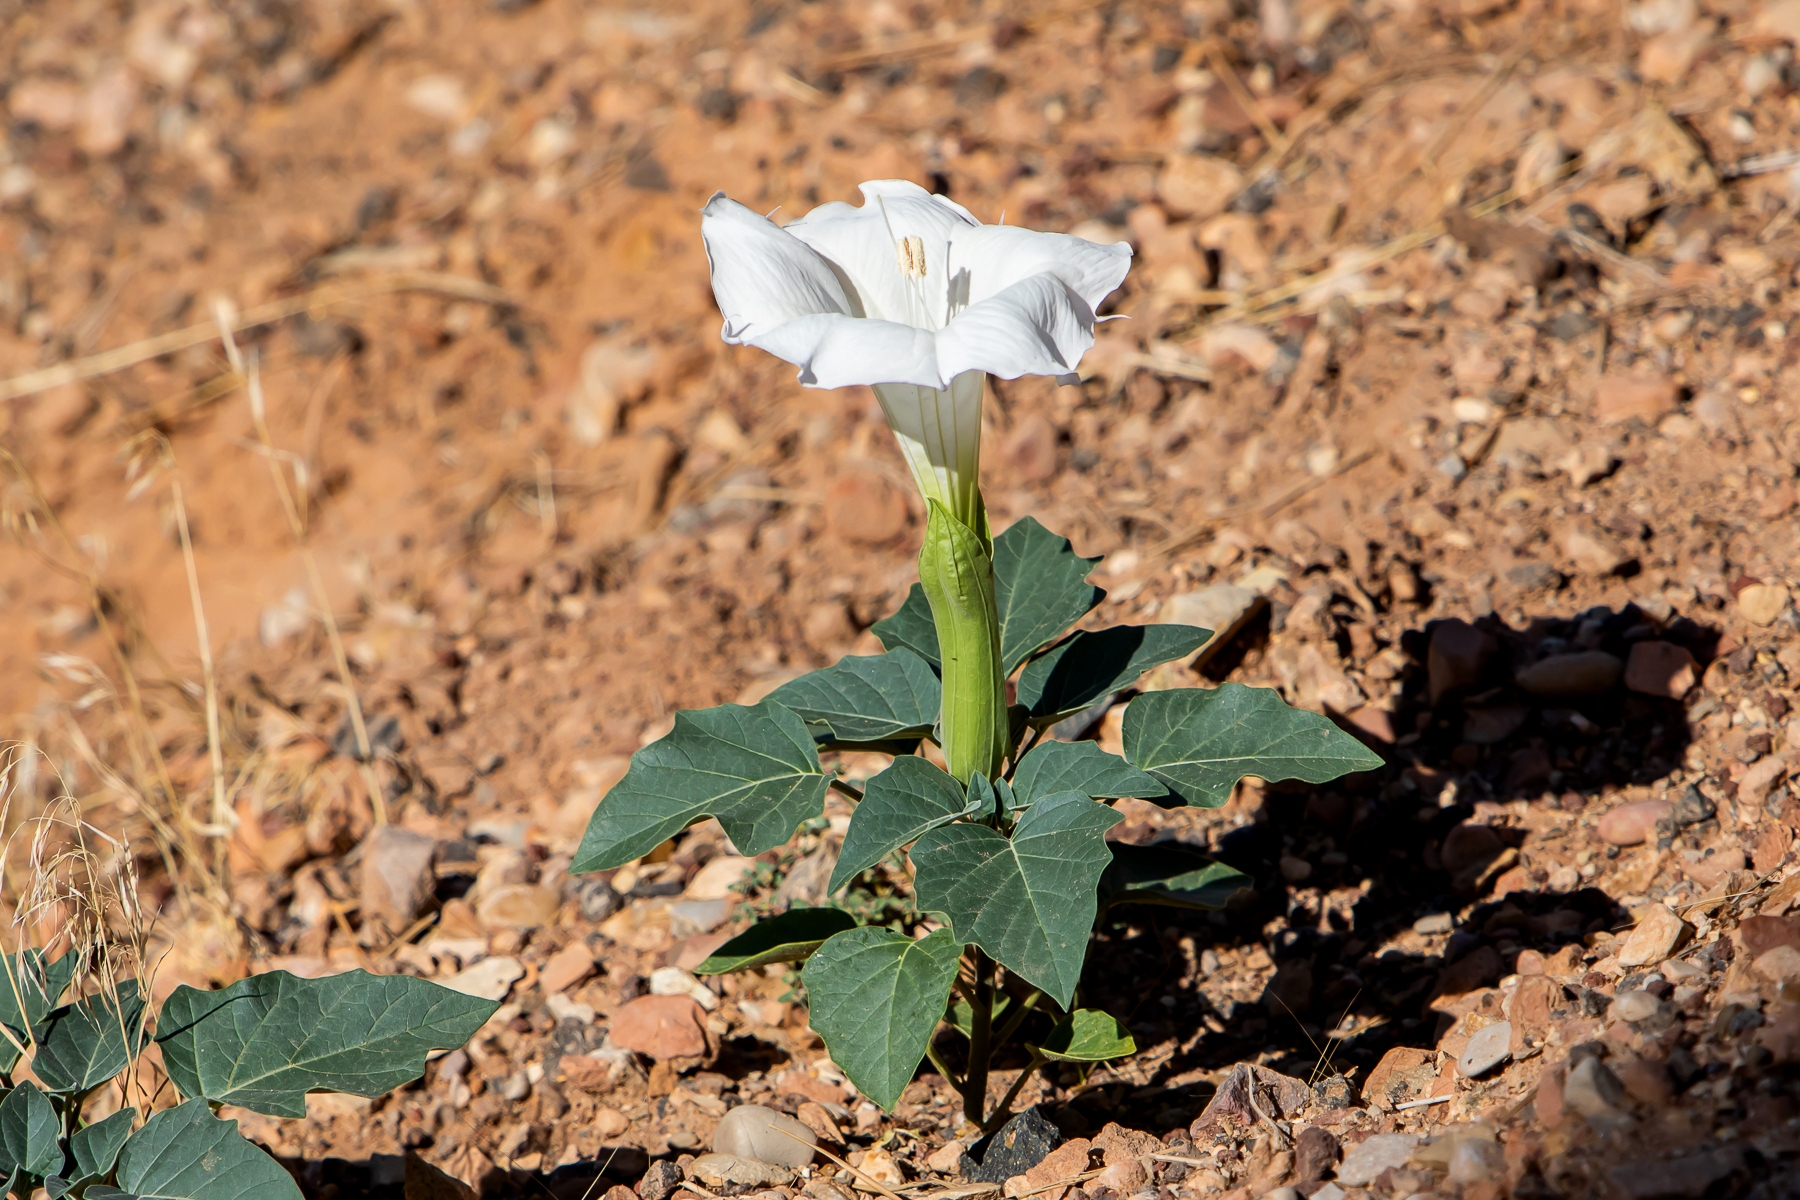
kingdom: Plantae
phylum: Tracheophyta
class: Magnoliopsida
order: Solanales
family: Solanaceae
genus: Datura
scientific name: Datura wrightii
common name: Sacred thorn-apple
